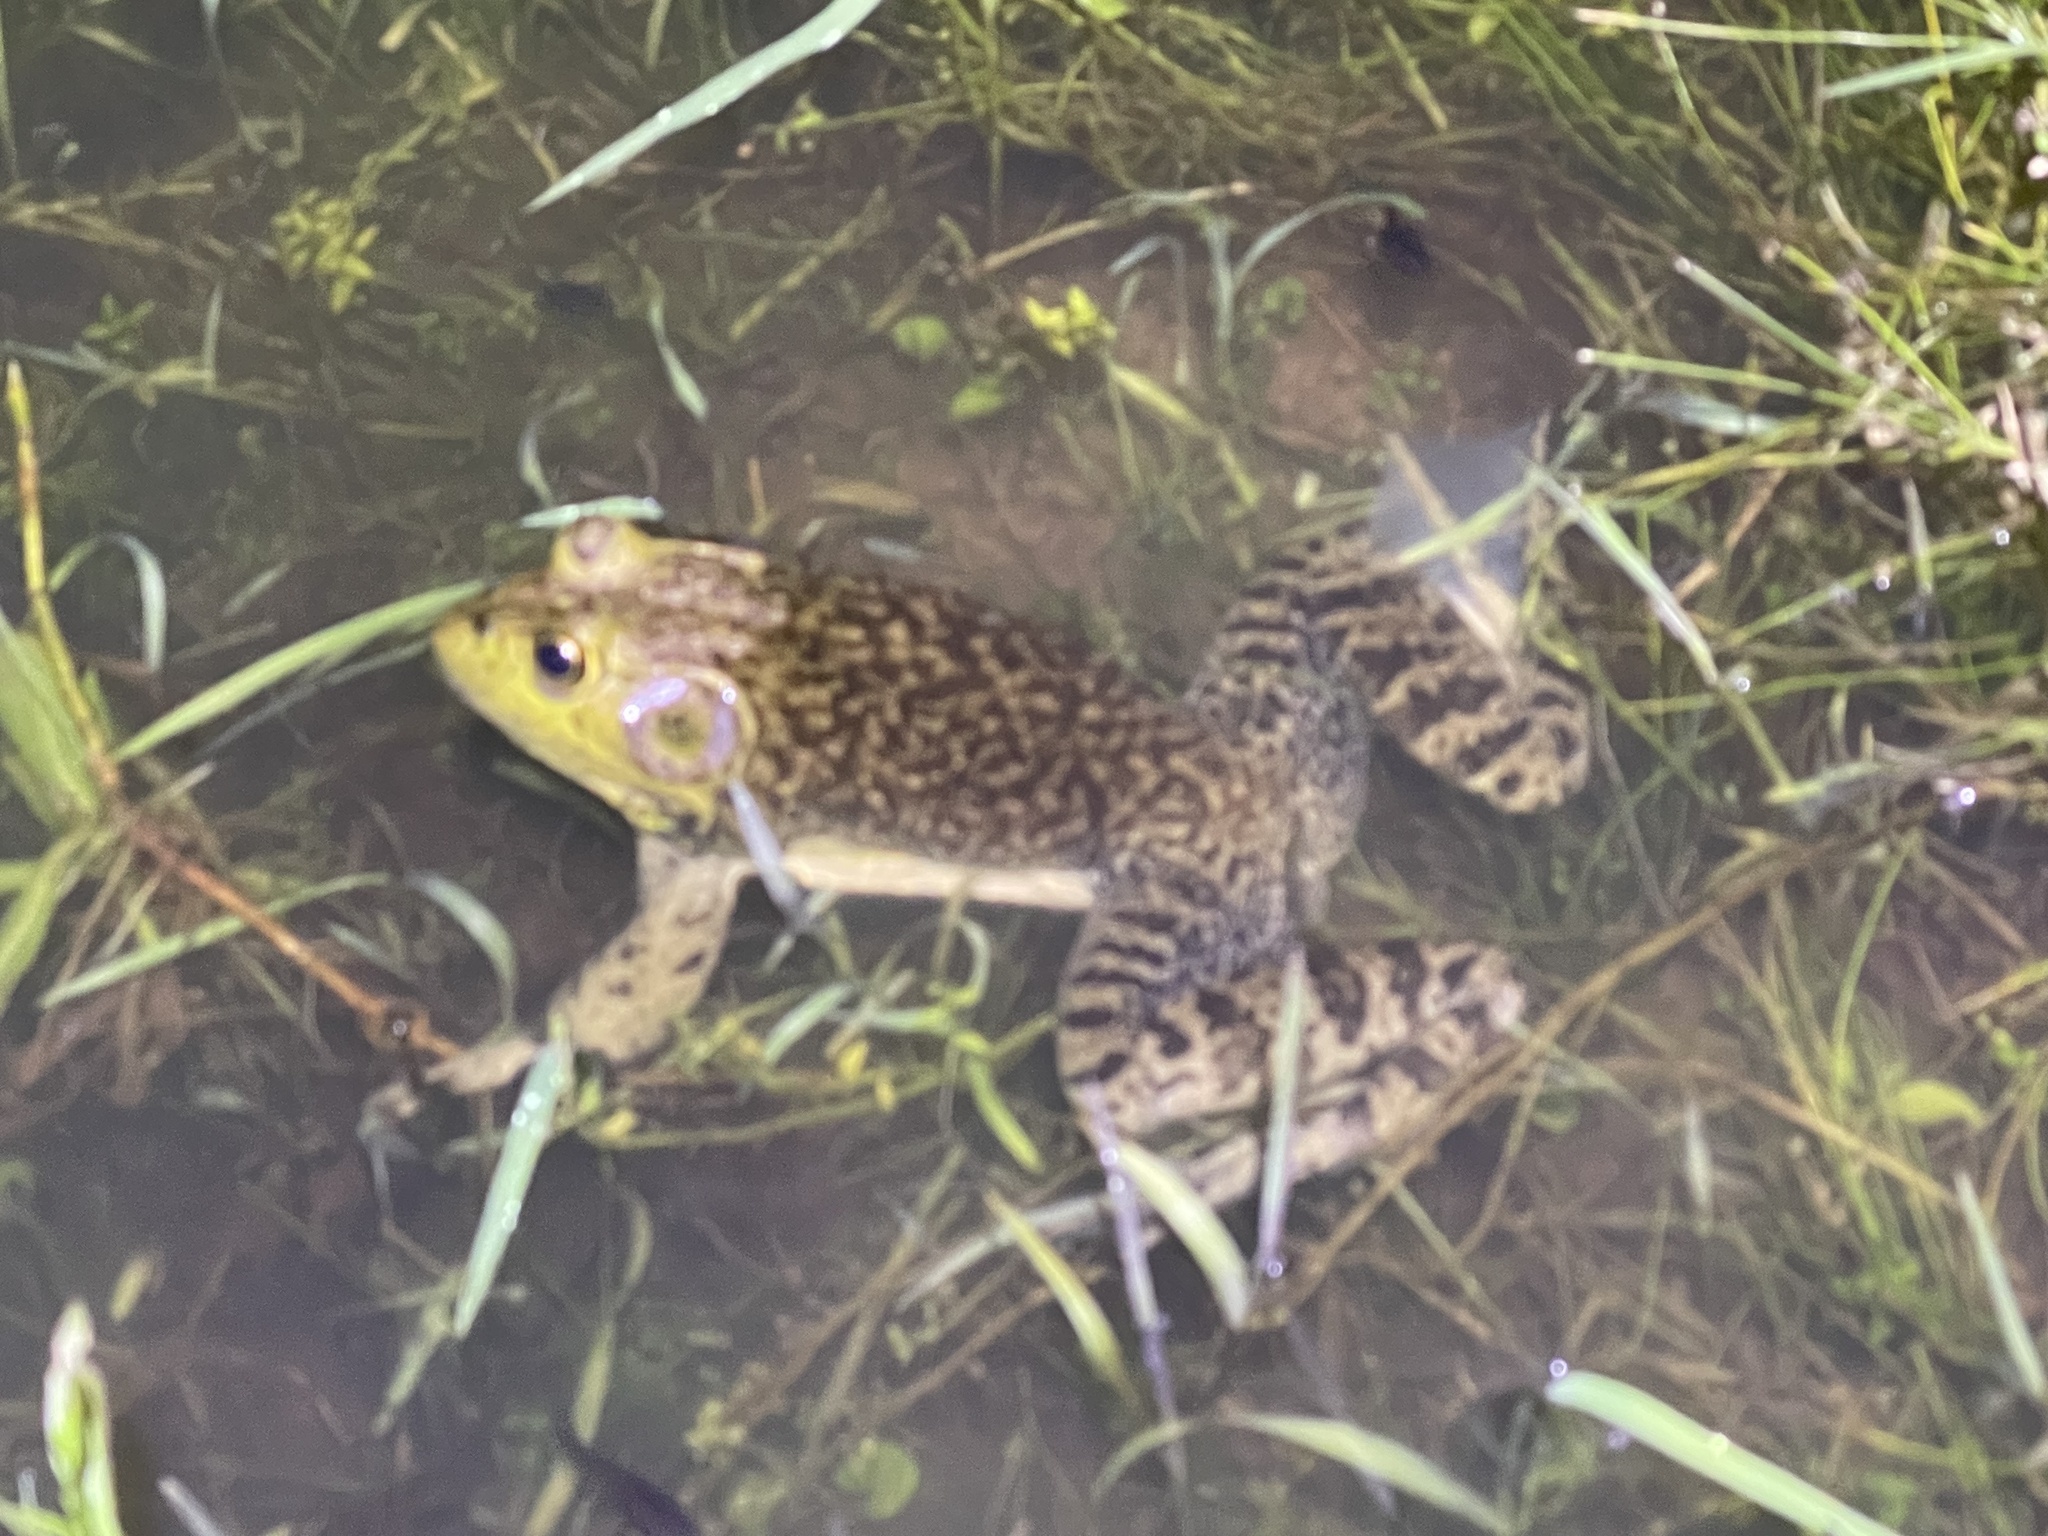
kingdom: Animalia
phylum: Chordata
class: Amphibia
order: Anura
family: Ranidae
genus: Lithobates
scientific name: Lithobates catesbeianus
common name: American bullfrog
